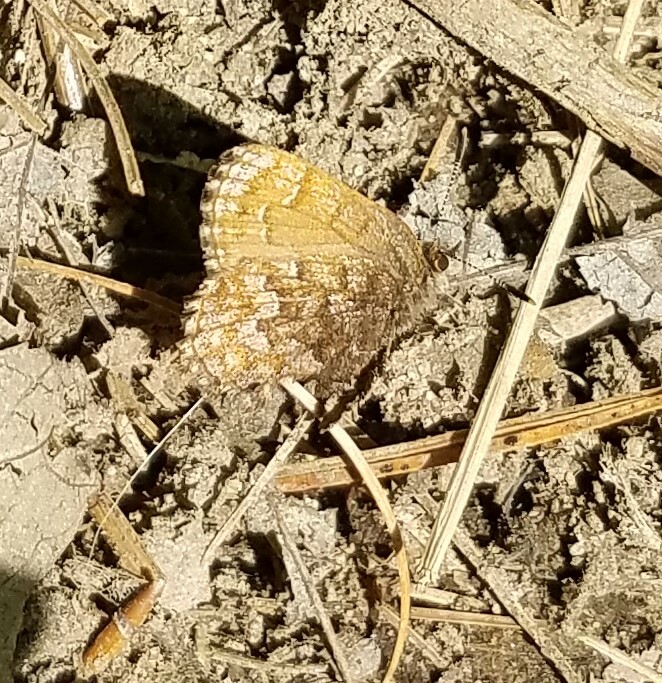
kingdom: Animalia
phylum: Arthropoda
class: Insecta
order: Lepidoptera
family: Lycaenidae
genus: Incisalia
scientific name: Incisalia niphon
